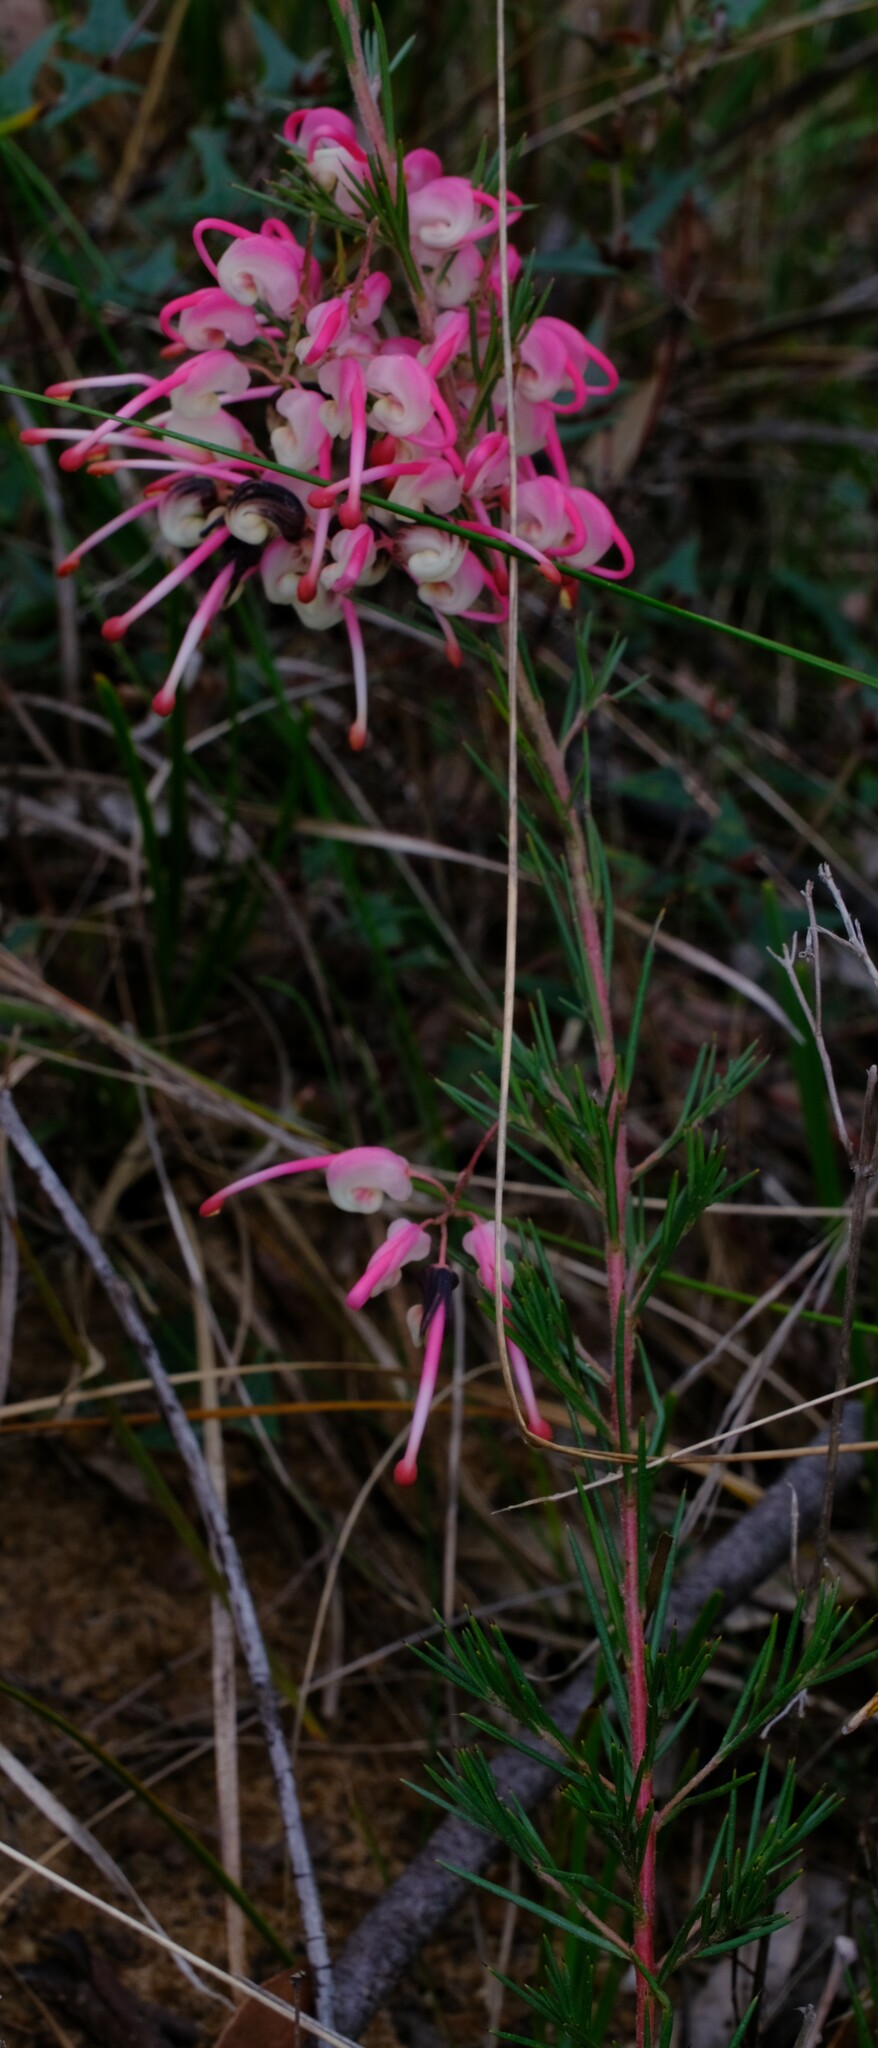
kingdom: Plantae
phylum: Tracheophyta
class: Magnoliopsida
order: Proteales
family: Proteaceae
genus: Grevillea
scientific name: Grevillea rosmarinifolia
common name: Rosemary grevillea
